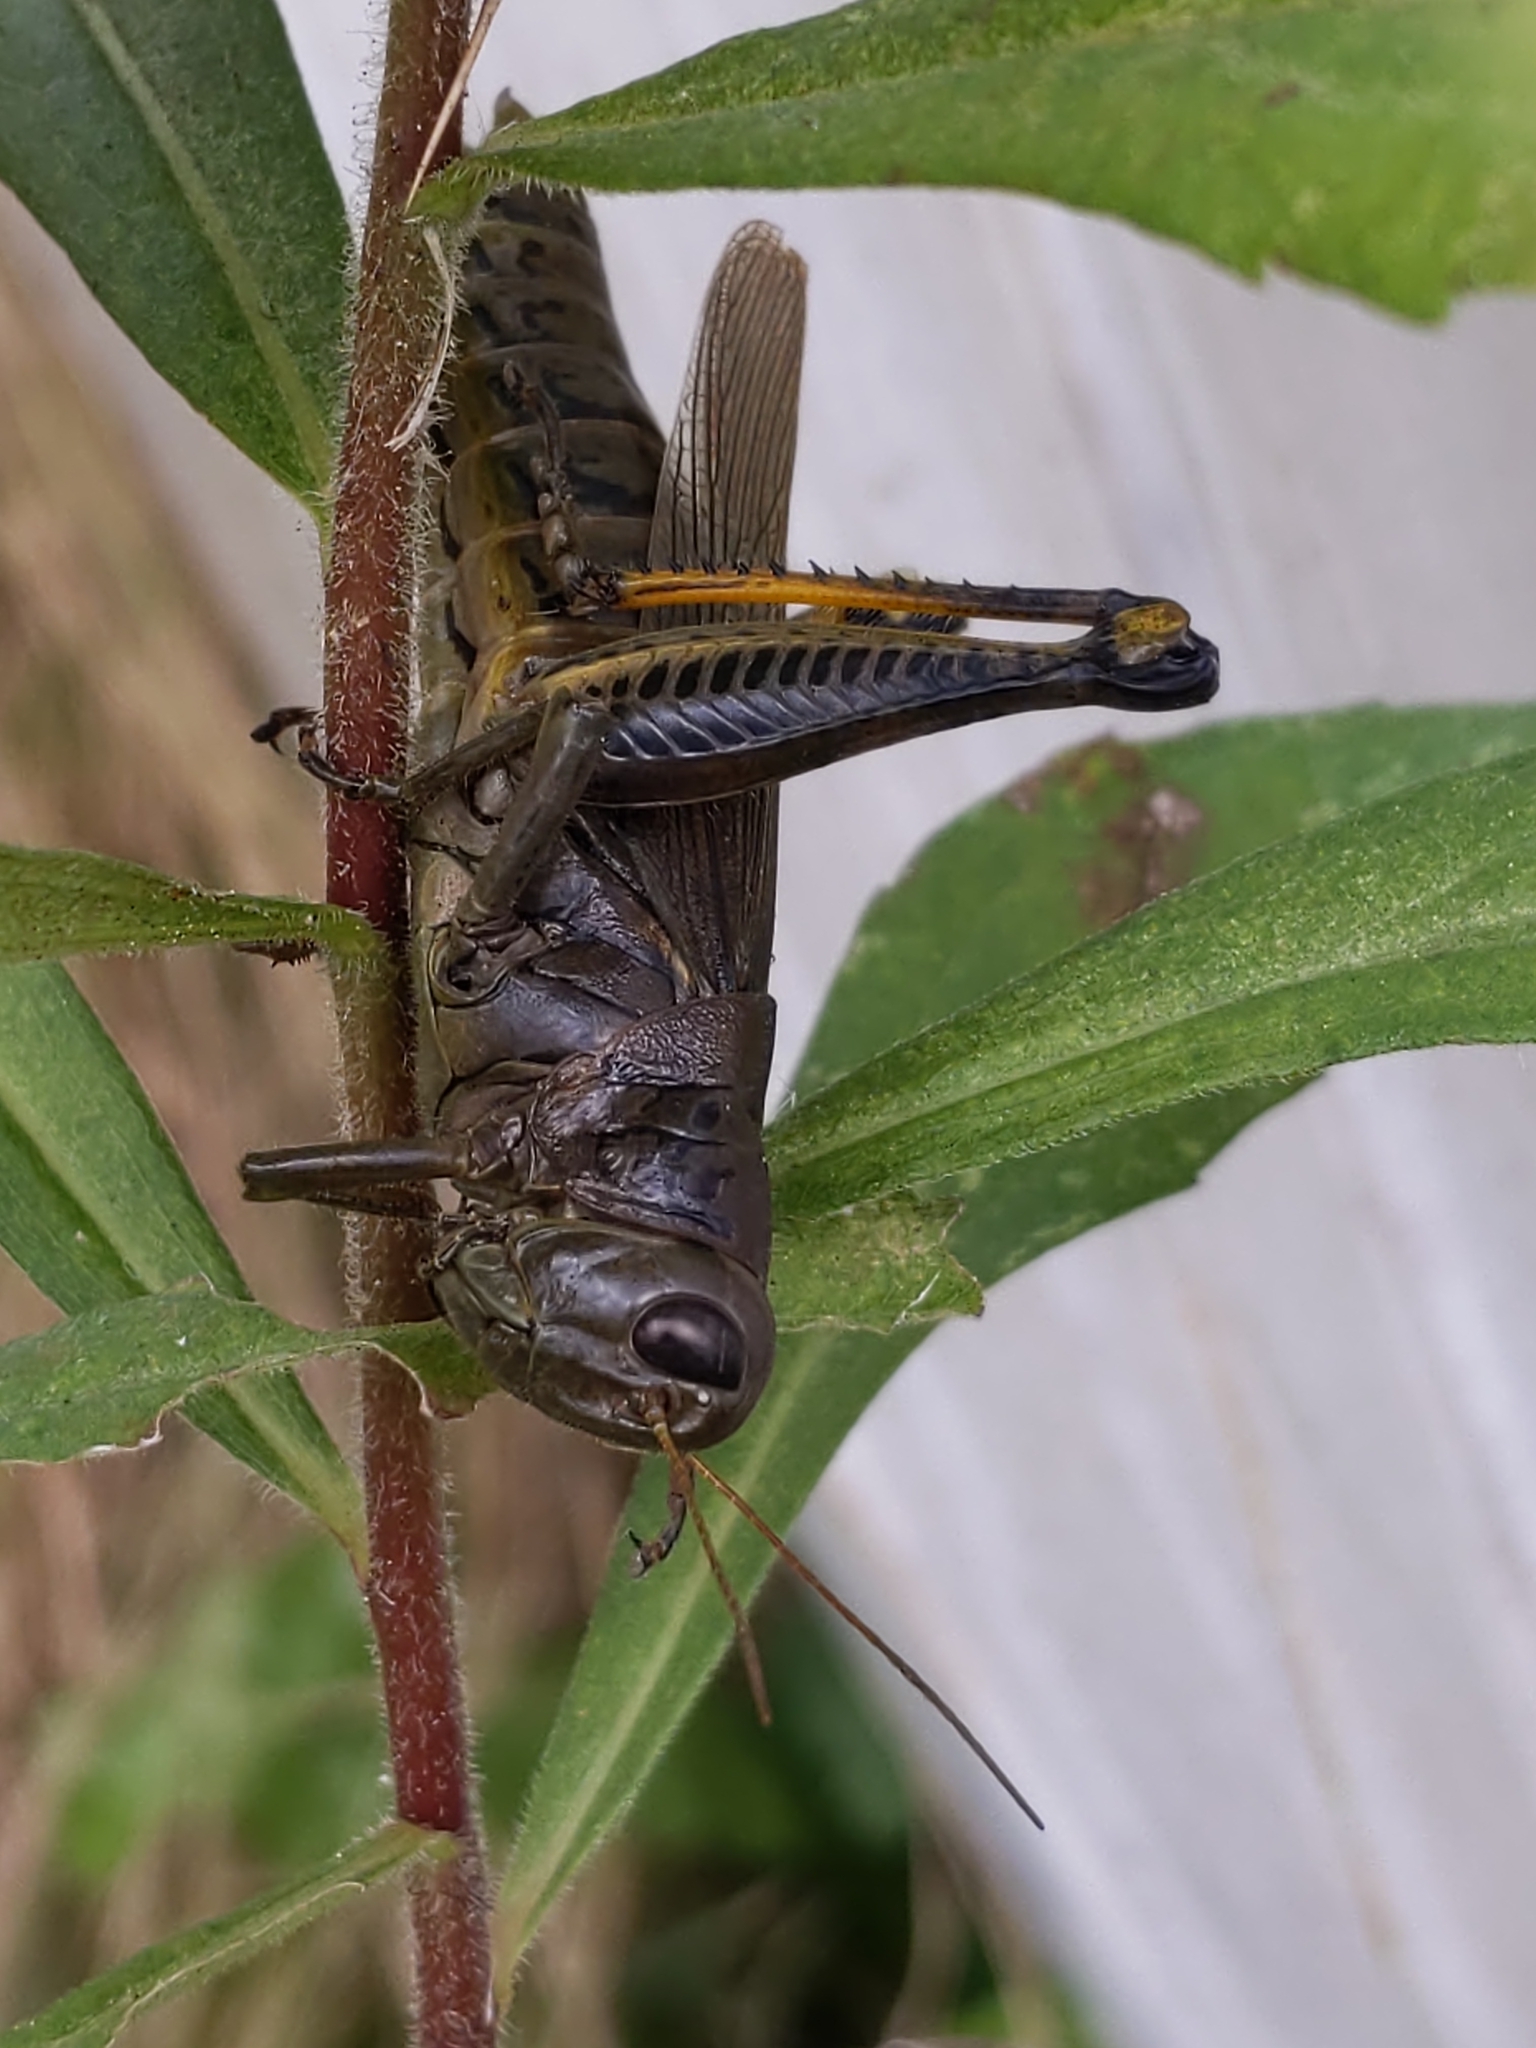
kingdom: Animalia
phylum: Arthropoda
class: Insecta
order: Orthoptera
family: Acrididae
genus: Melanoplus
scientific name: Melanoplus differentialis
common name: Differential grasshopper
